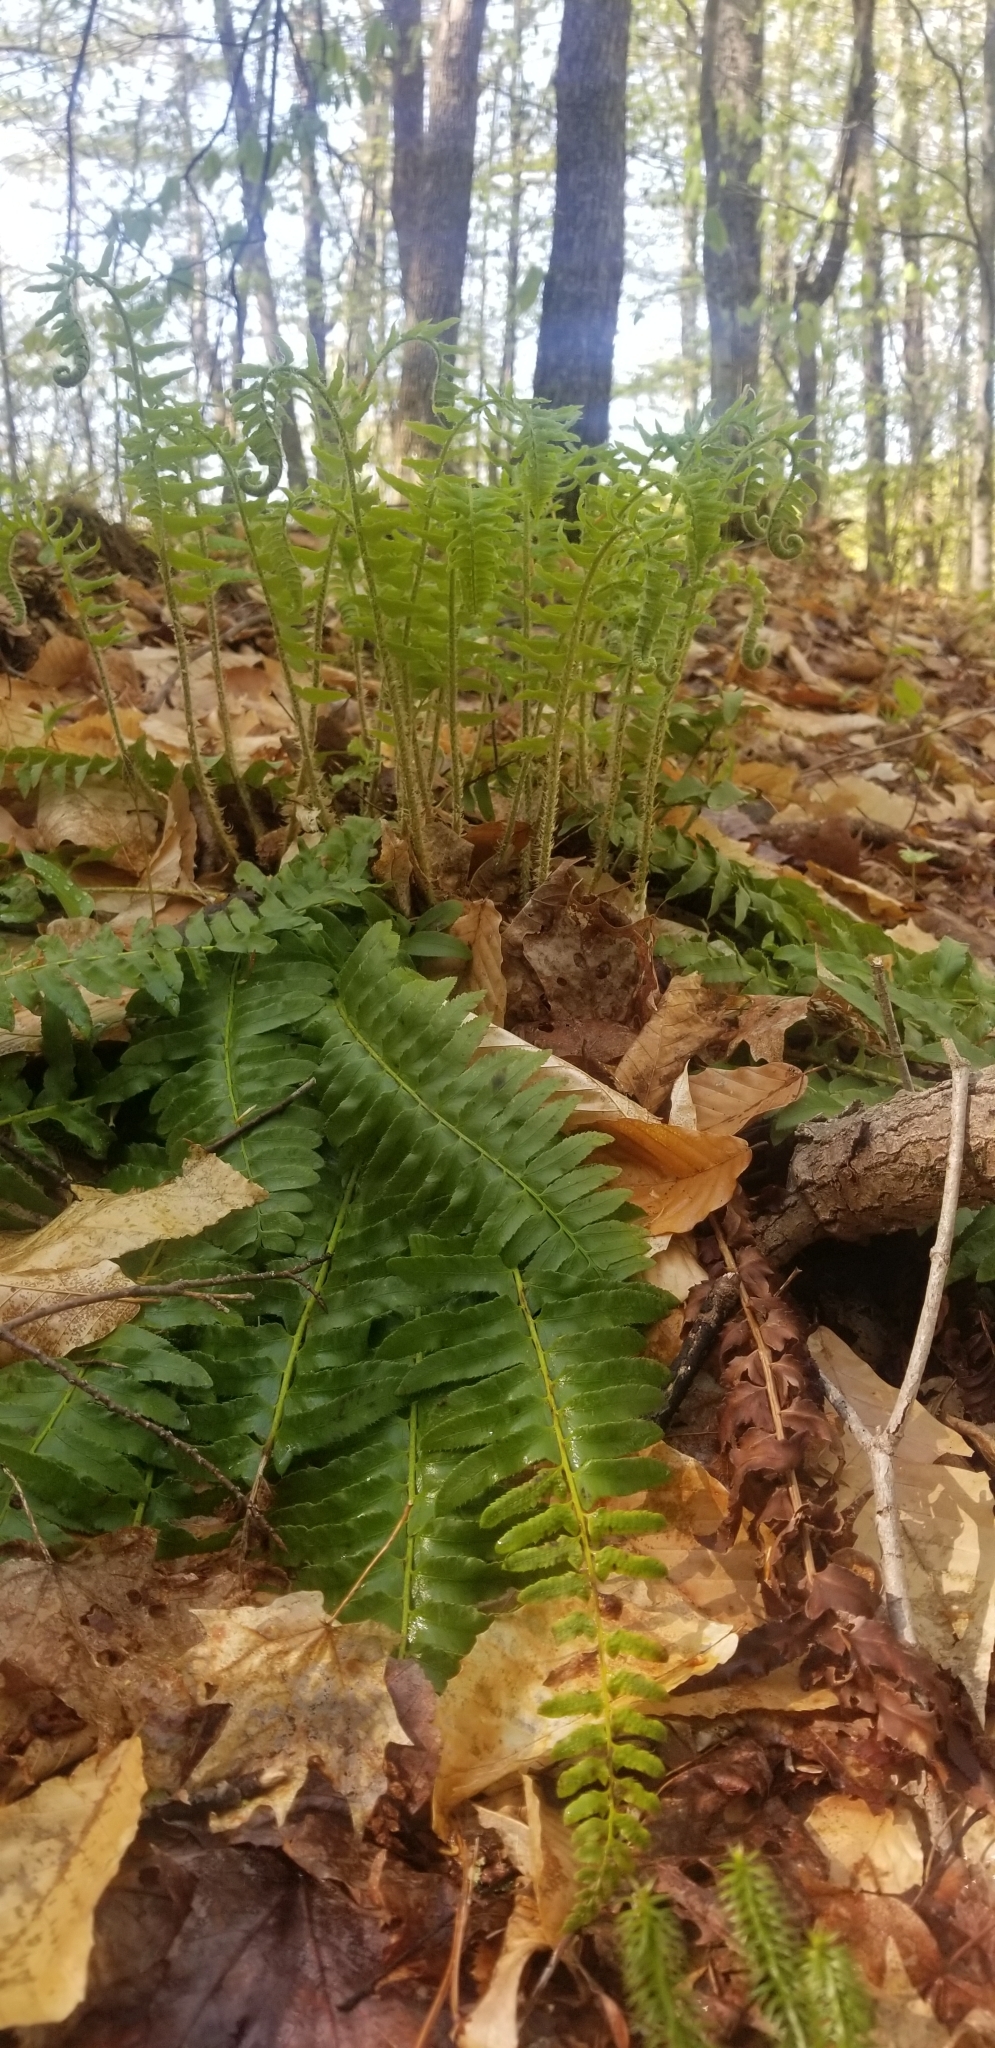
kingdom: Plantae
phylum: Tracheophyta
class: Polypodiopsida
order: Polypodiales
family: Dryopteridaceae
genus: Polystichum
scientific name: Polystichum acrostichoides
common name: Christmas fern
